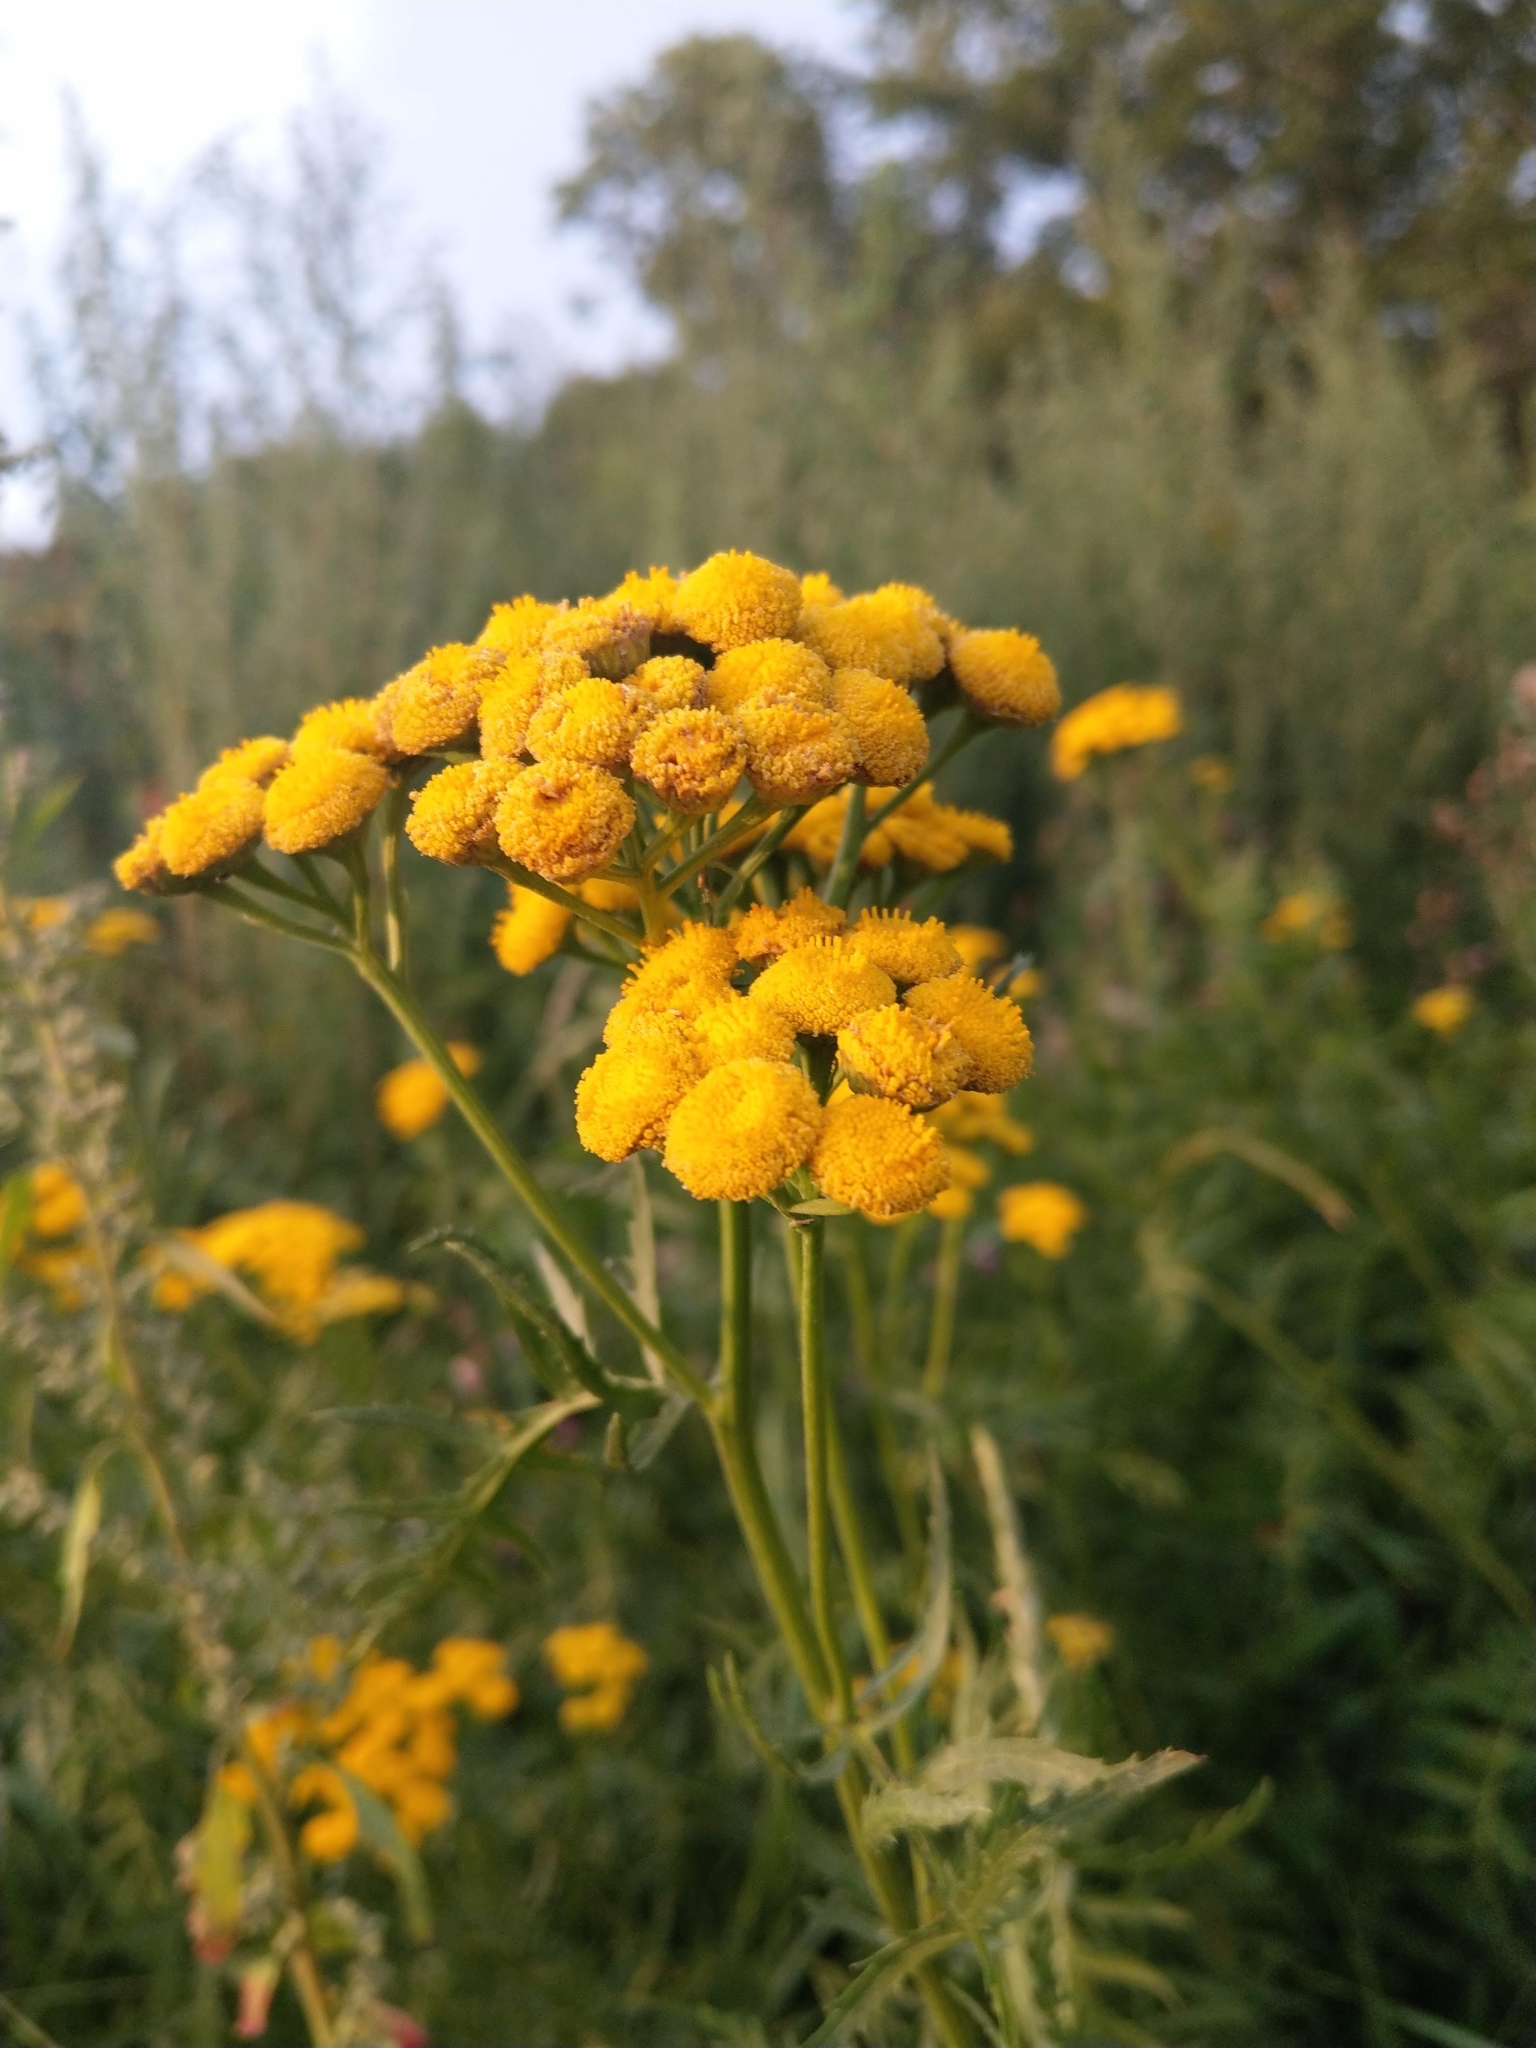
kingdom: Plantae
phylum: Tracheophyta
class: Magnoliopsida
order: Asterales
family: Asteraceae
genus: Tanacetum
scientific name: Tanacetum vulgare
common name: Common tansy
